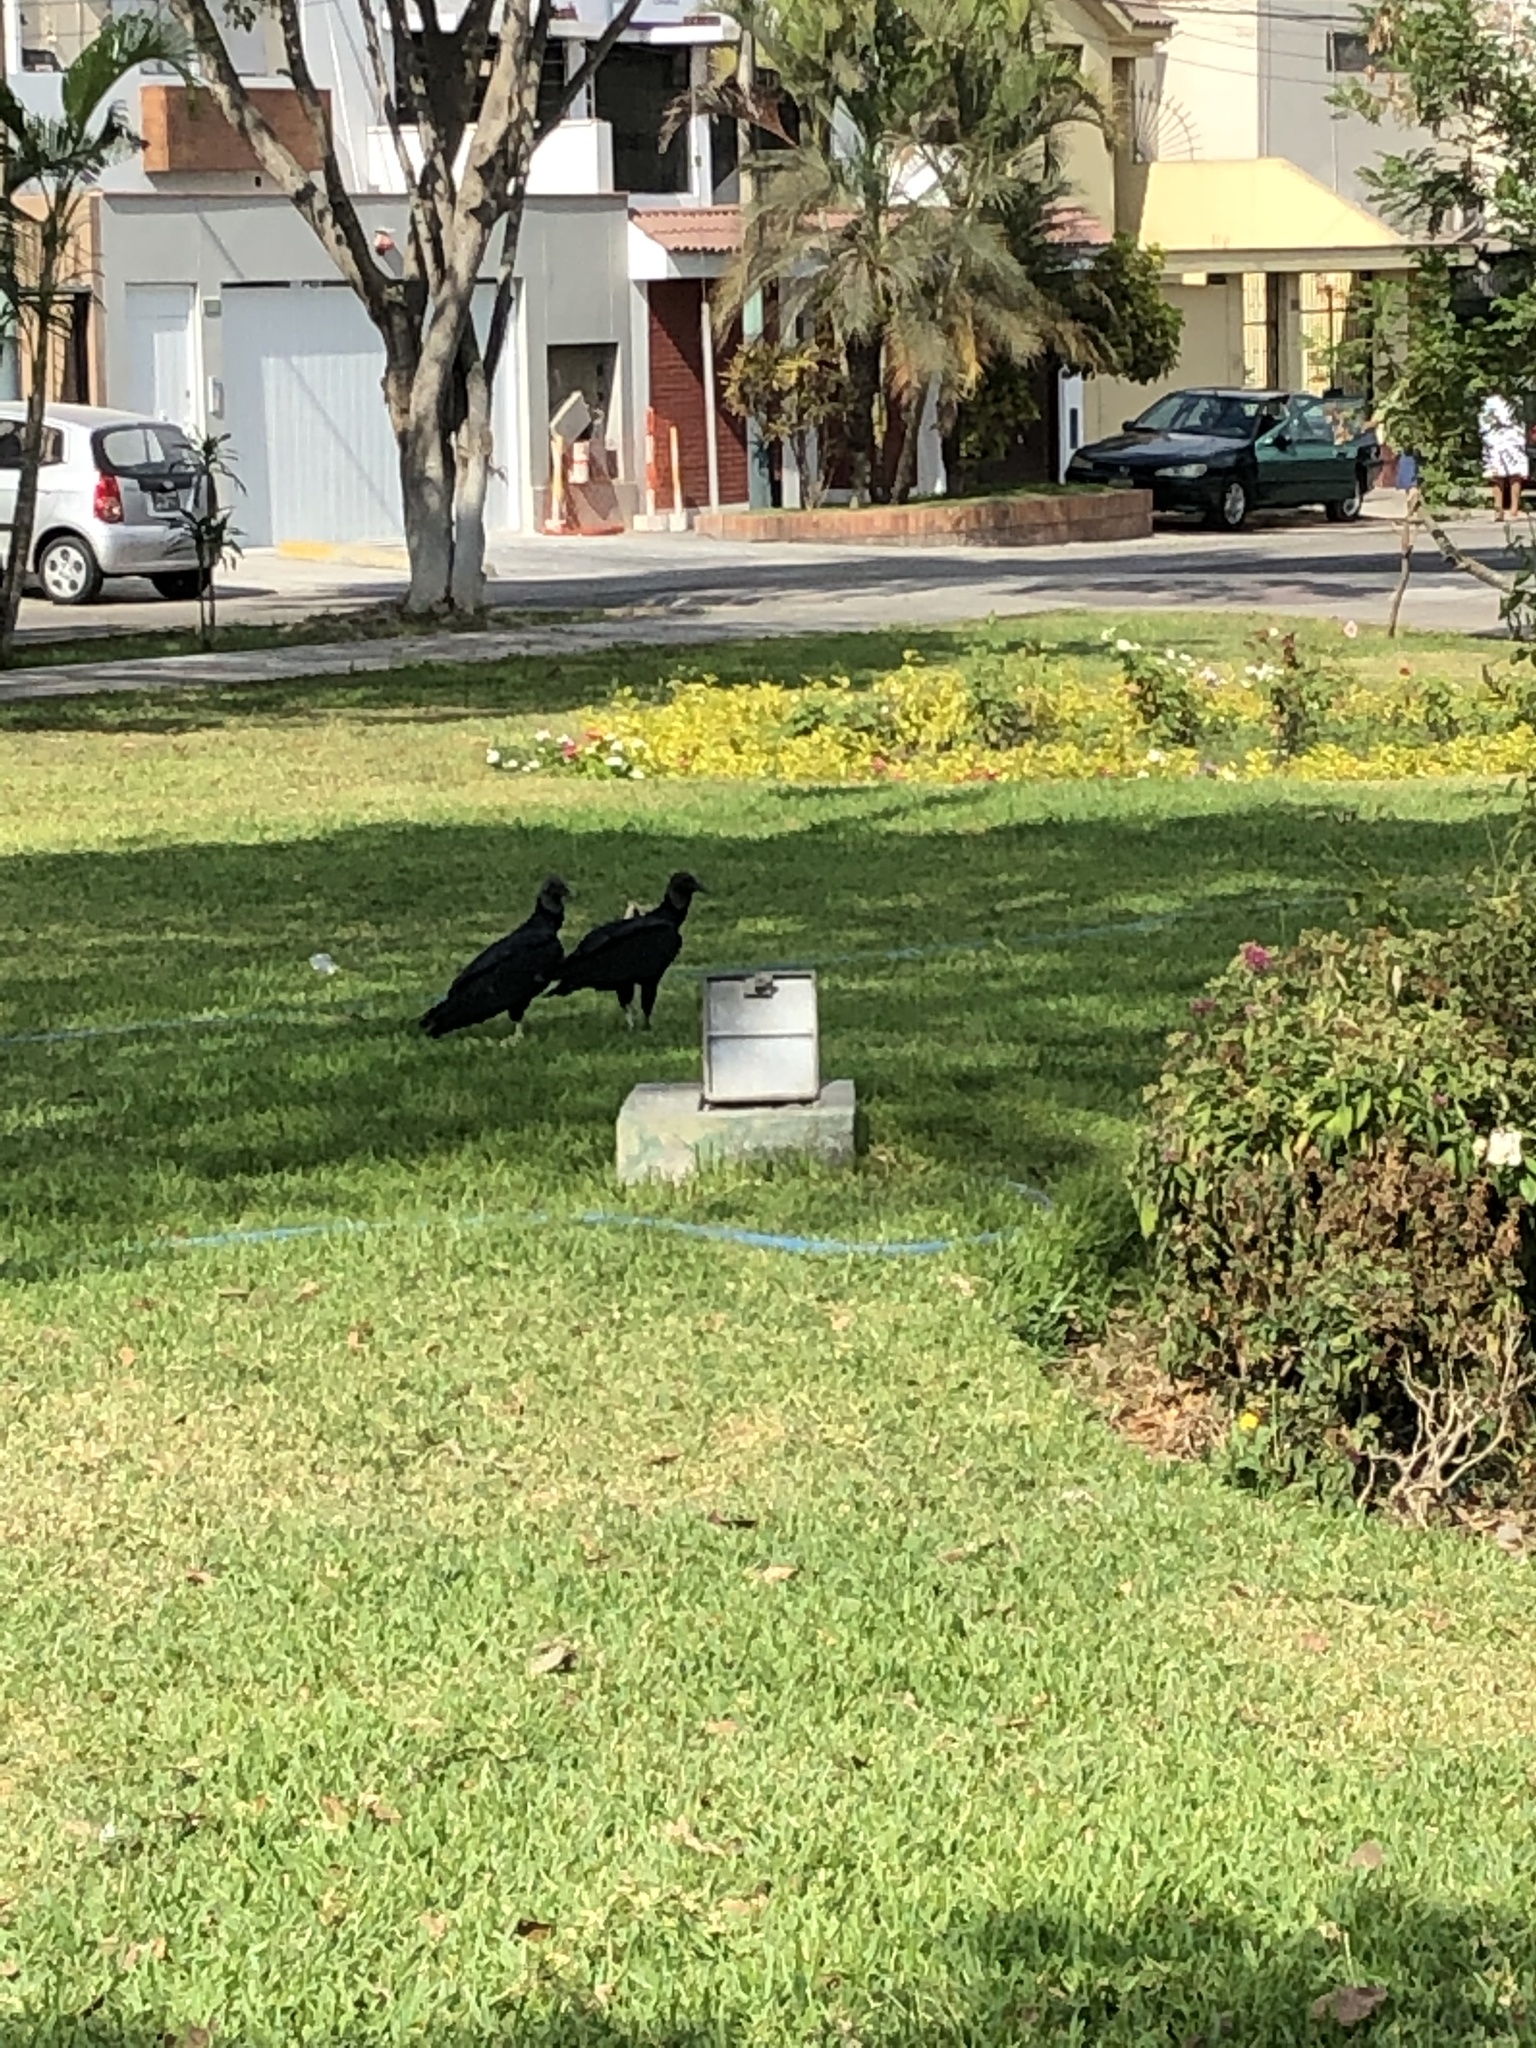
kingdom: Animalia
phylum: Chordata
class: Aves
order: Accipitriformes
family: Cathartidae
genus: Coragyps
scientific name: Coragyps atratus
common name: Black vulture
